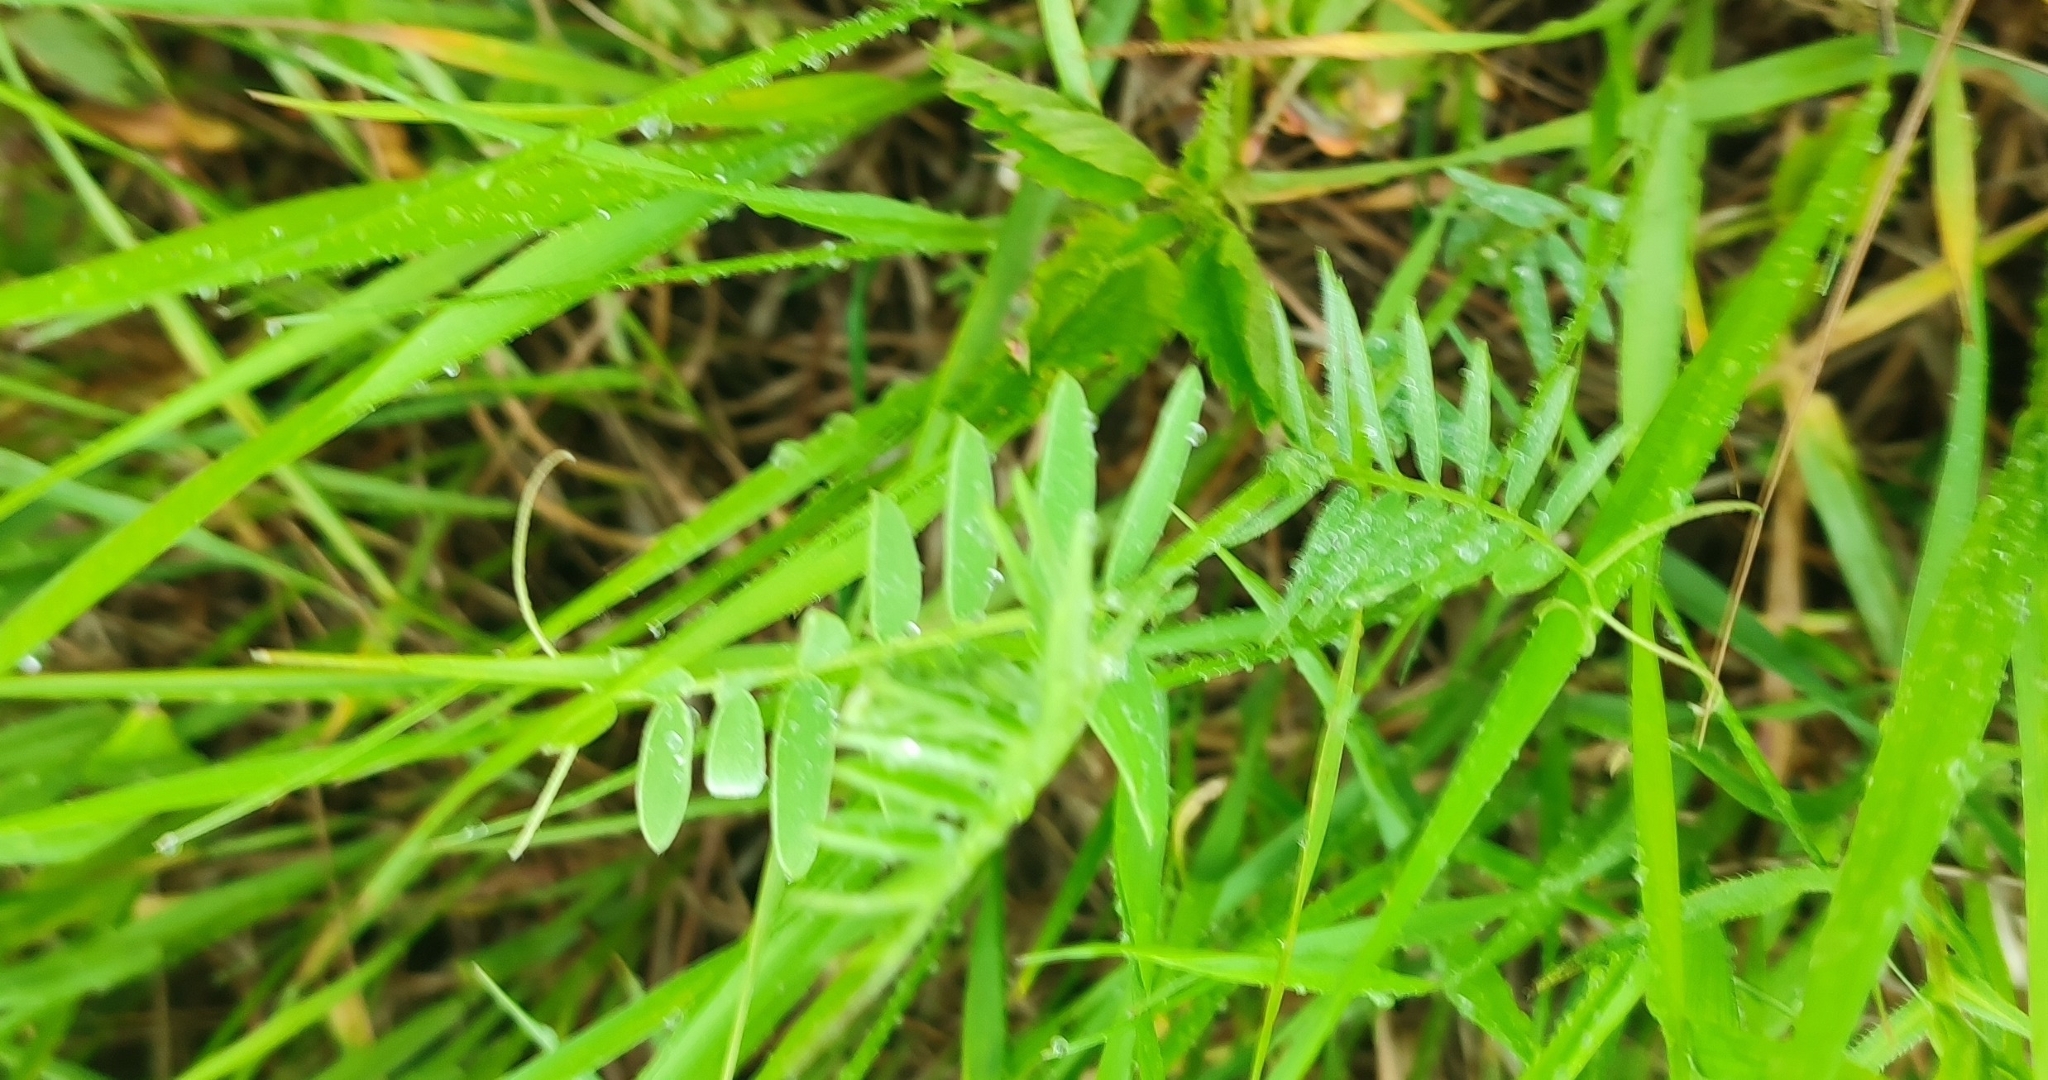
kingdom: Plantae
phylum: Tracheophyta
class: Magnoliopsida
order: Fabales
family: Fabaceae
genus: Vicia
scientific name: Vicia cracca
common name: Bird vetch
